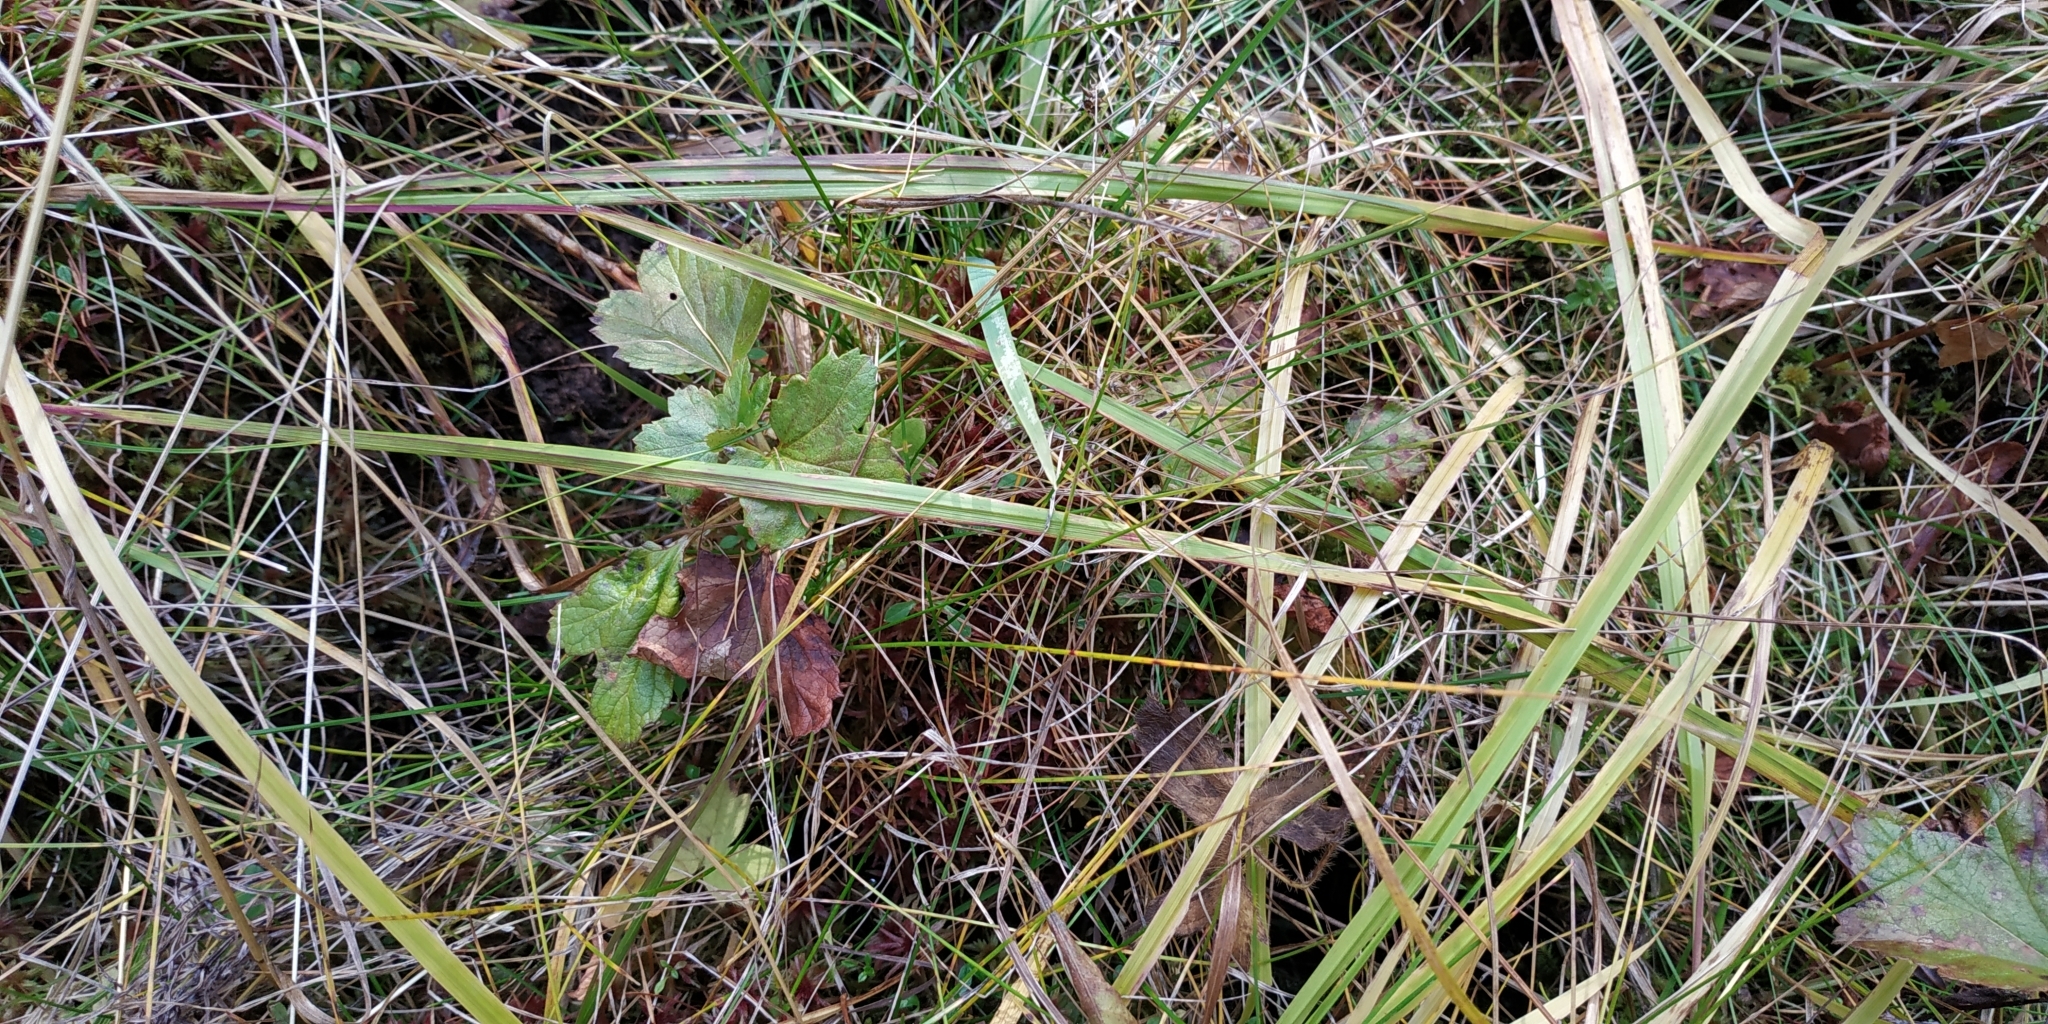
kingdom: Plantae
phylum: Tracheophyta
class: Magnoliopsida
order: Rosales
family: Rosaceae
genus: Rubus
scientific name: Rubus chamaemorus
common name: Cloudberry
